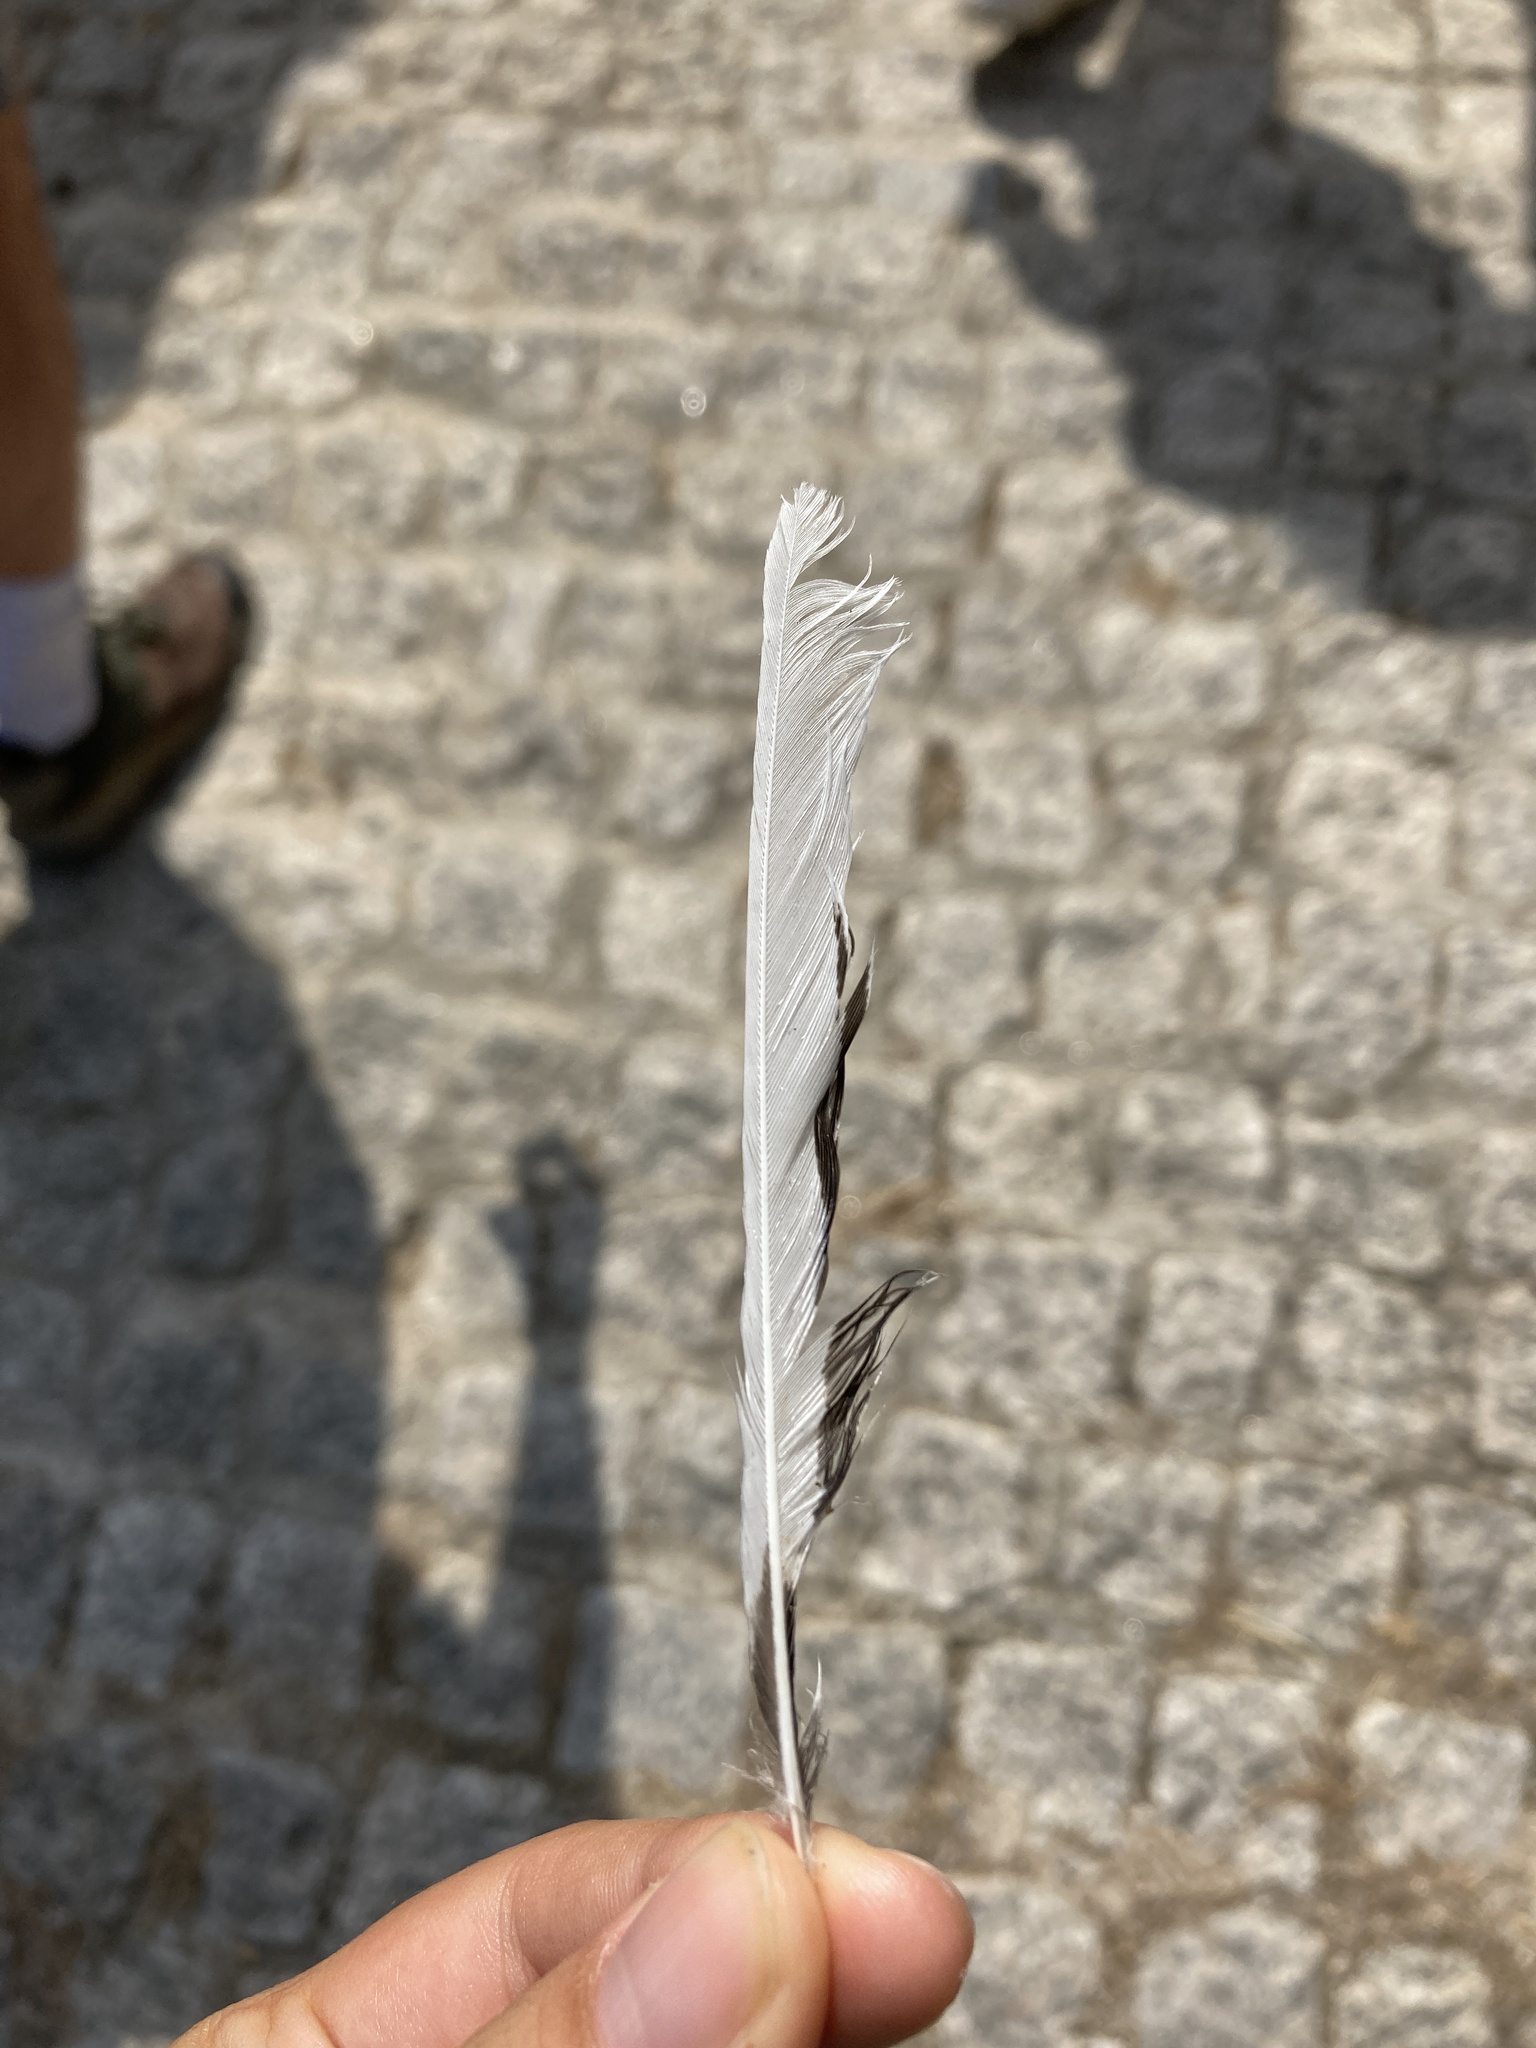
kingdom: Animalia
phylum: Chordata
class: Aves
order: Passeriformes
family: Motacillidae
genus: Motacilla
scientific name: Motacilla alba
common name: White wagtail
